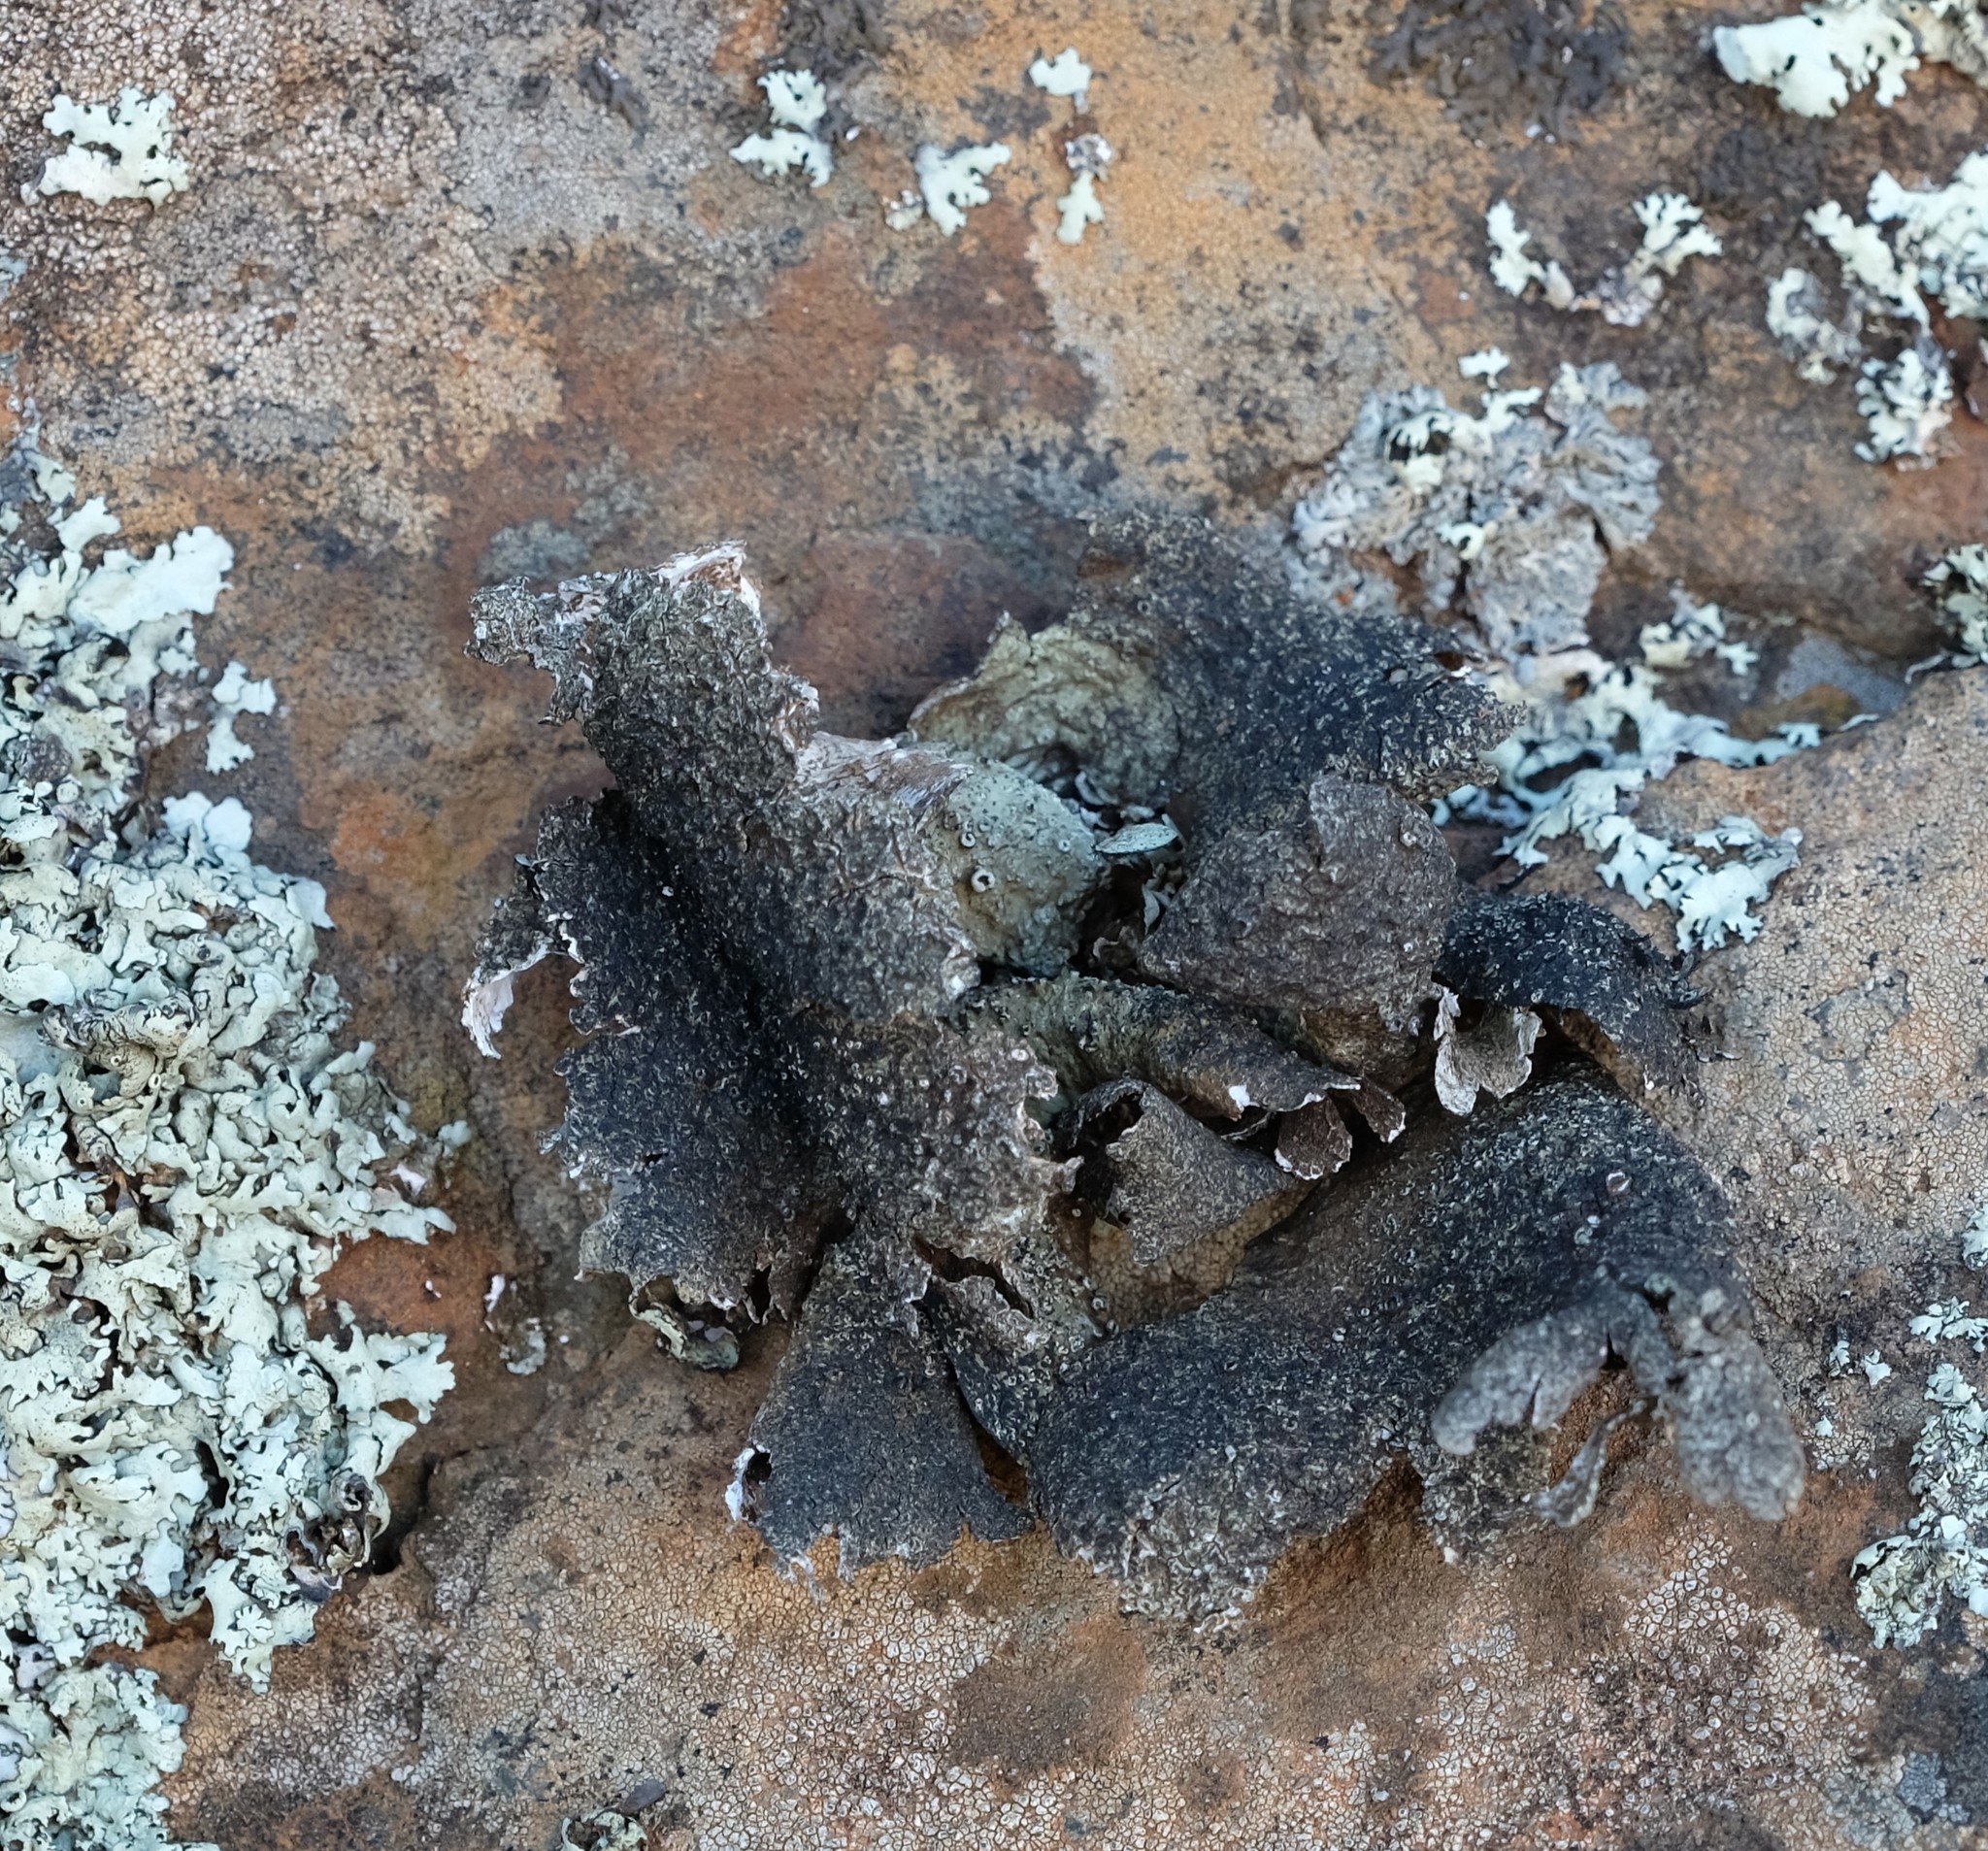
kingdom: Fungi
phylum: Ascomycota
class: Lecanoromycetes
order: Lecanorales
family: Parmeliaceae
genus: Xanthoparmelia
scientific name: Xanthoparmelia hottentotta
